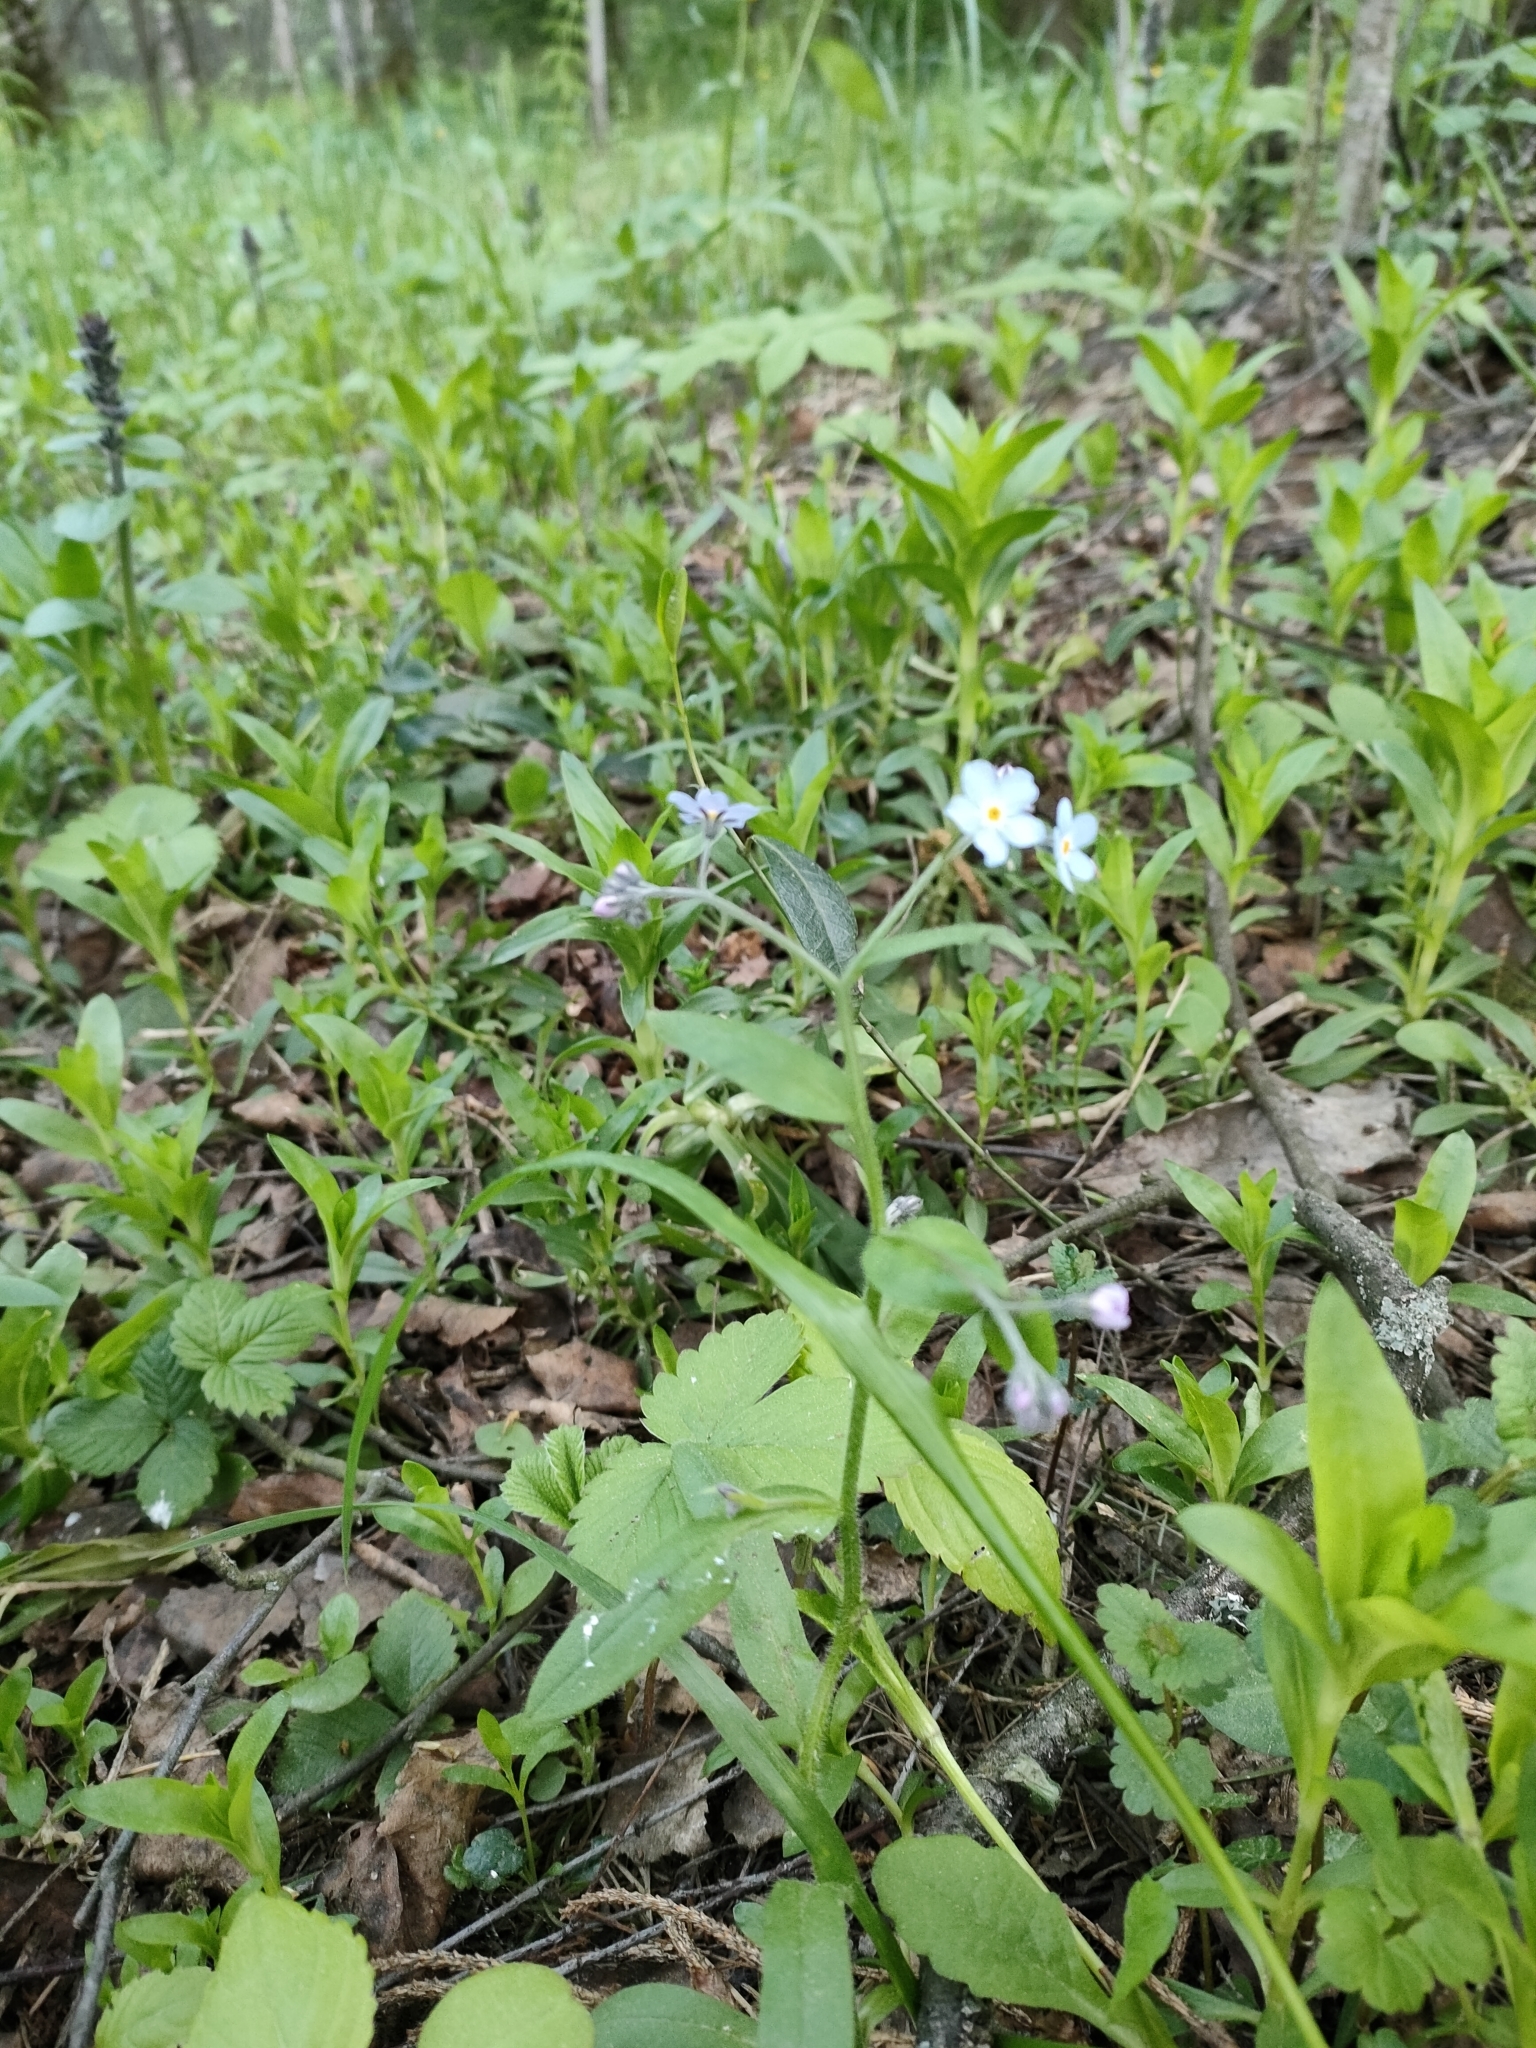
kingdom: Plantae
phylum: Tracheophyta
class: Magnoliopsida
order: Boraginales
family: Boraginaceae
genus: Myosotis
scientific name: Myosotis sylvatica
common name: Wood forget-me-not
